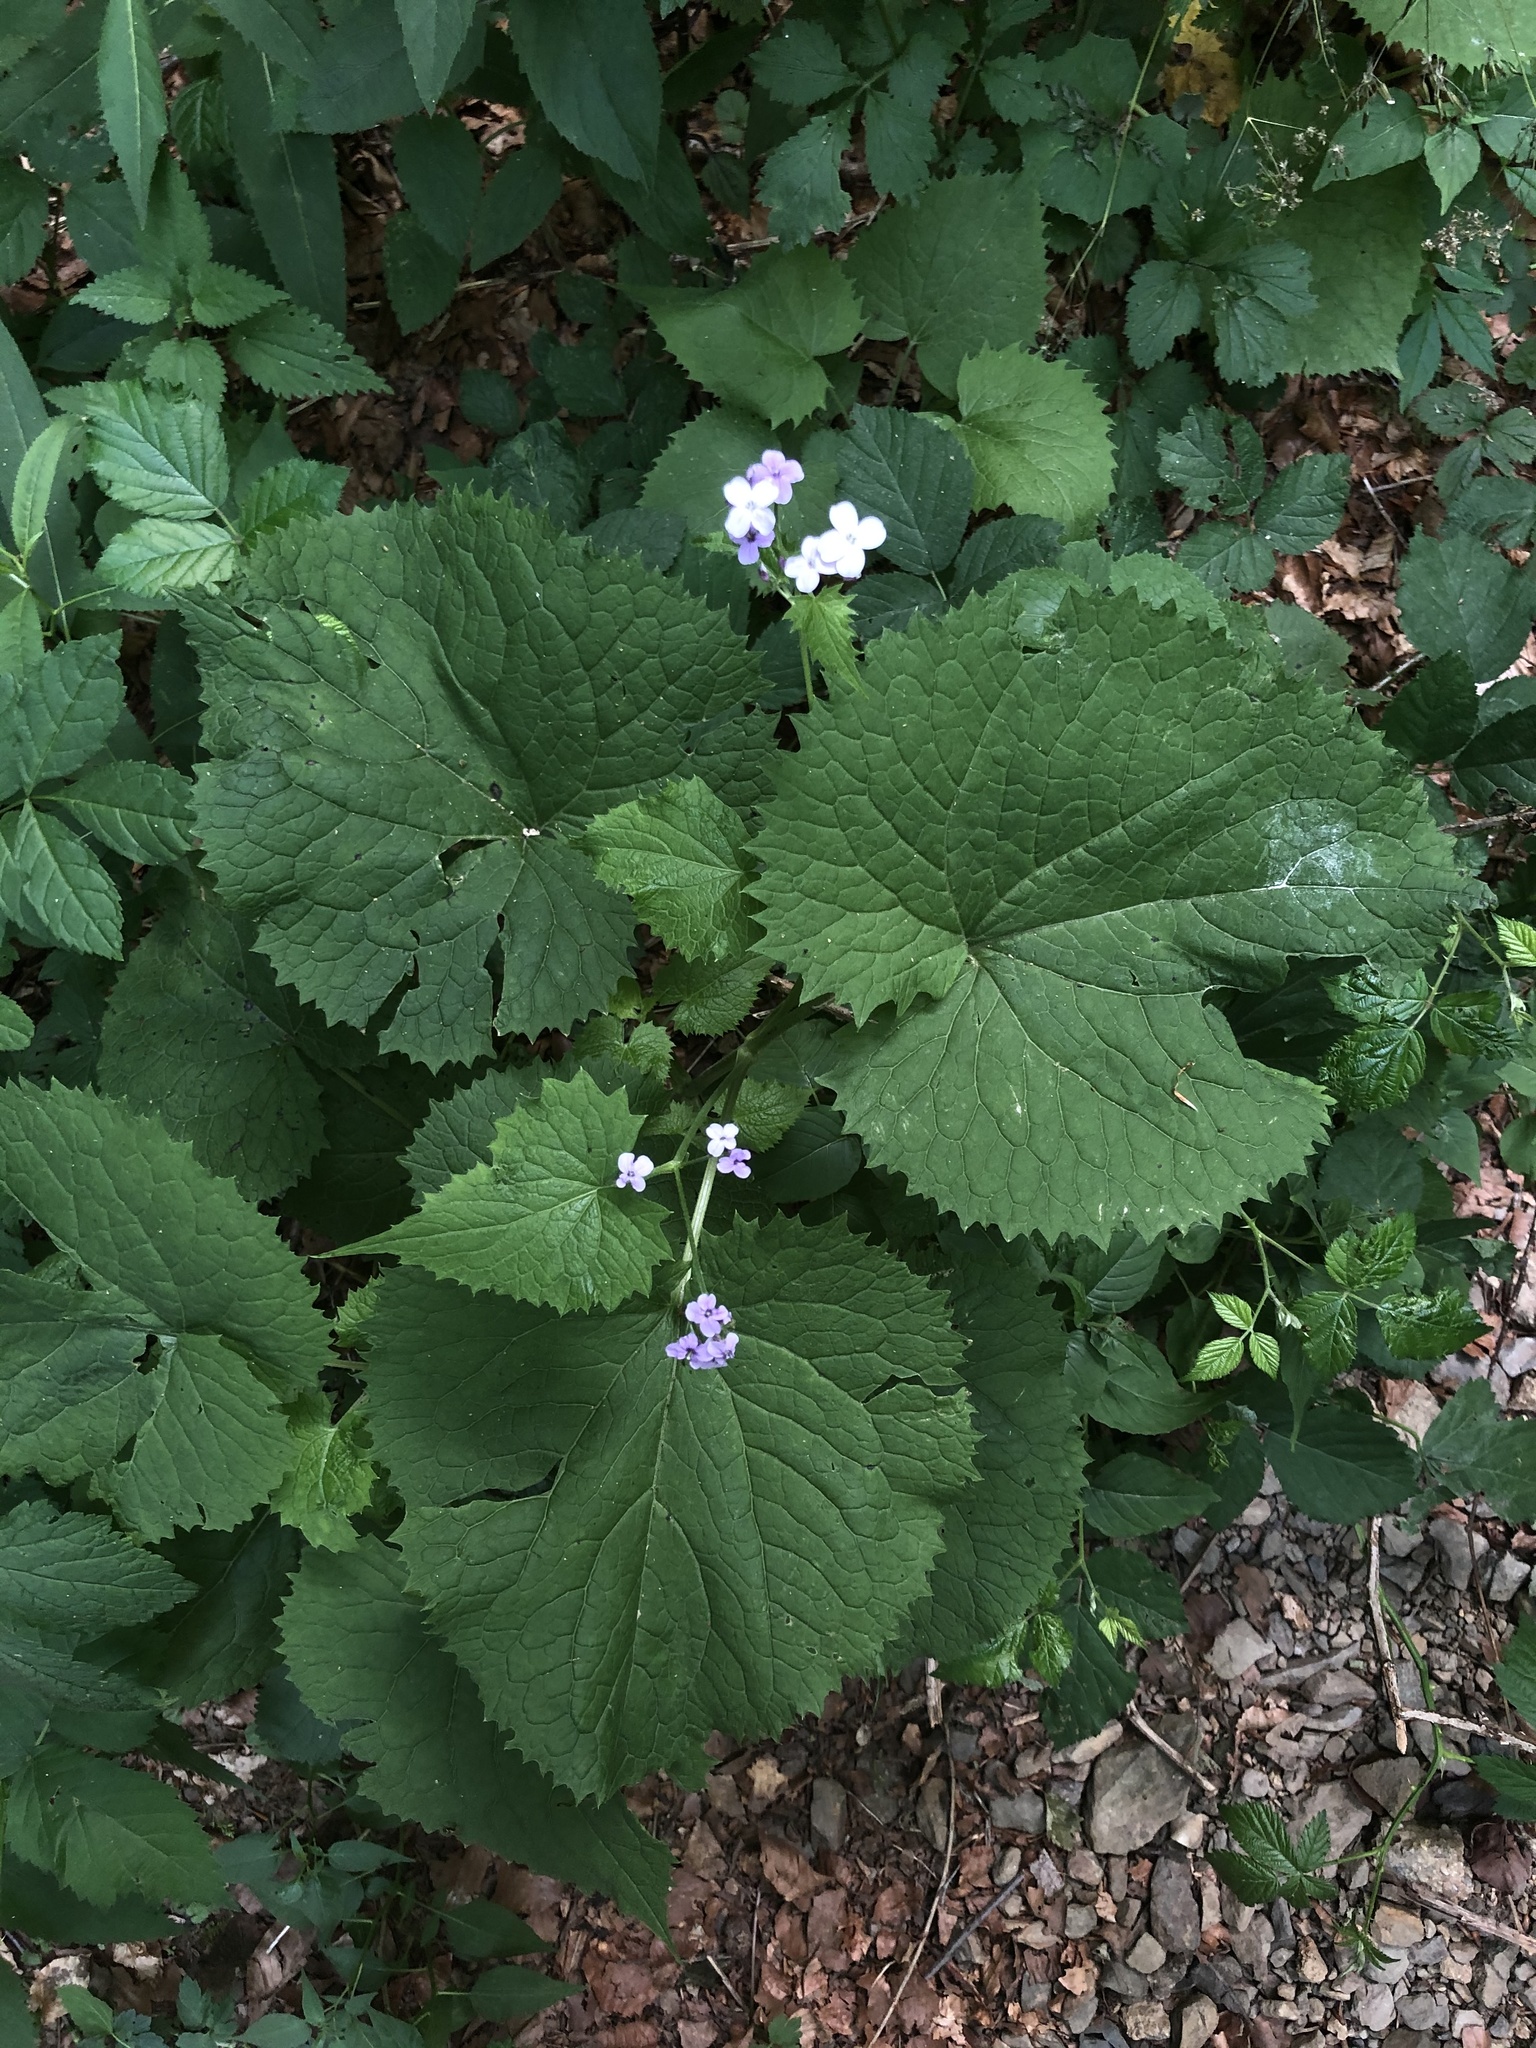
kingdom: Plantae
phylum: Tracheophyta
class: Magnoliopsida
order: Brassicales
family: Brassicaceae
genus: Lunaria
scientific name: Lunaria rediviva
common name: Perennial honesty
